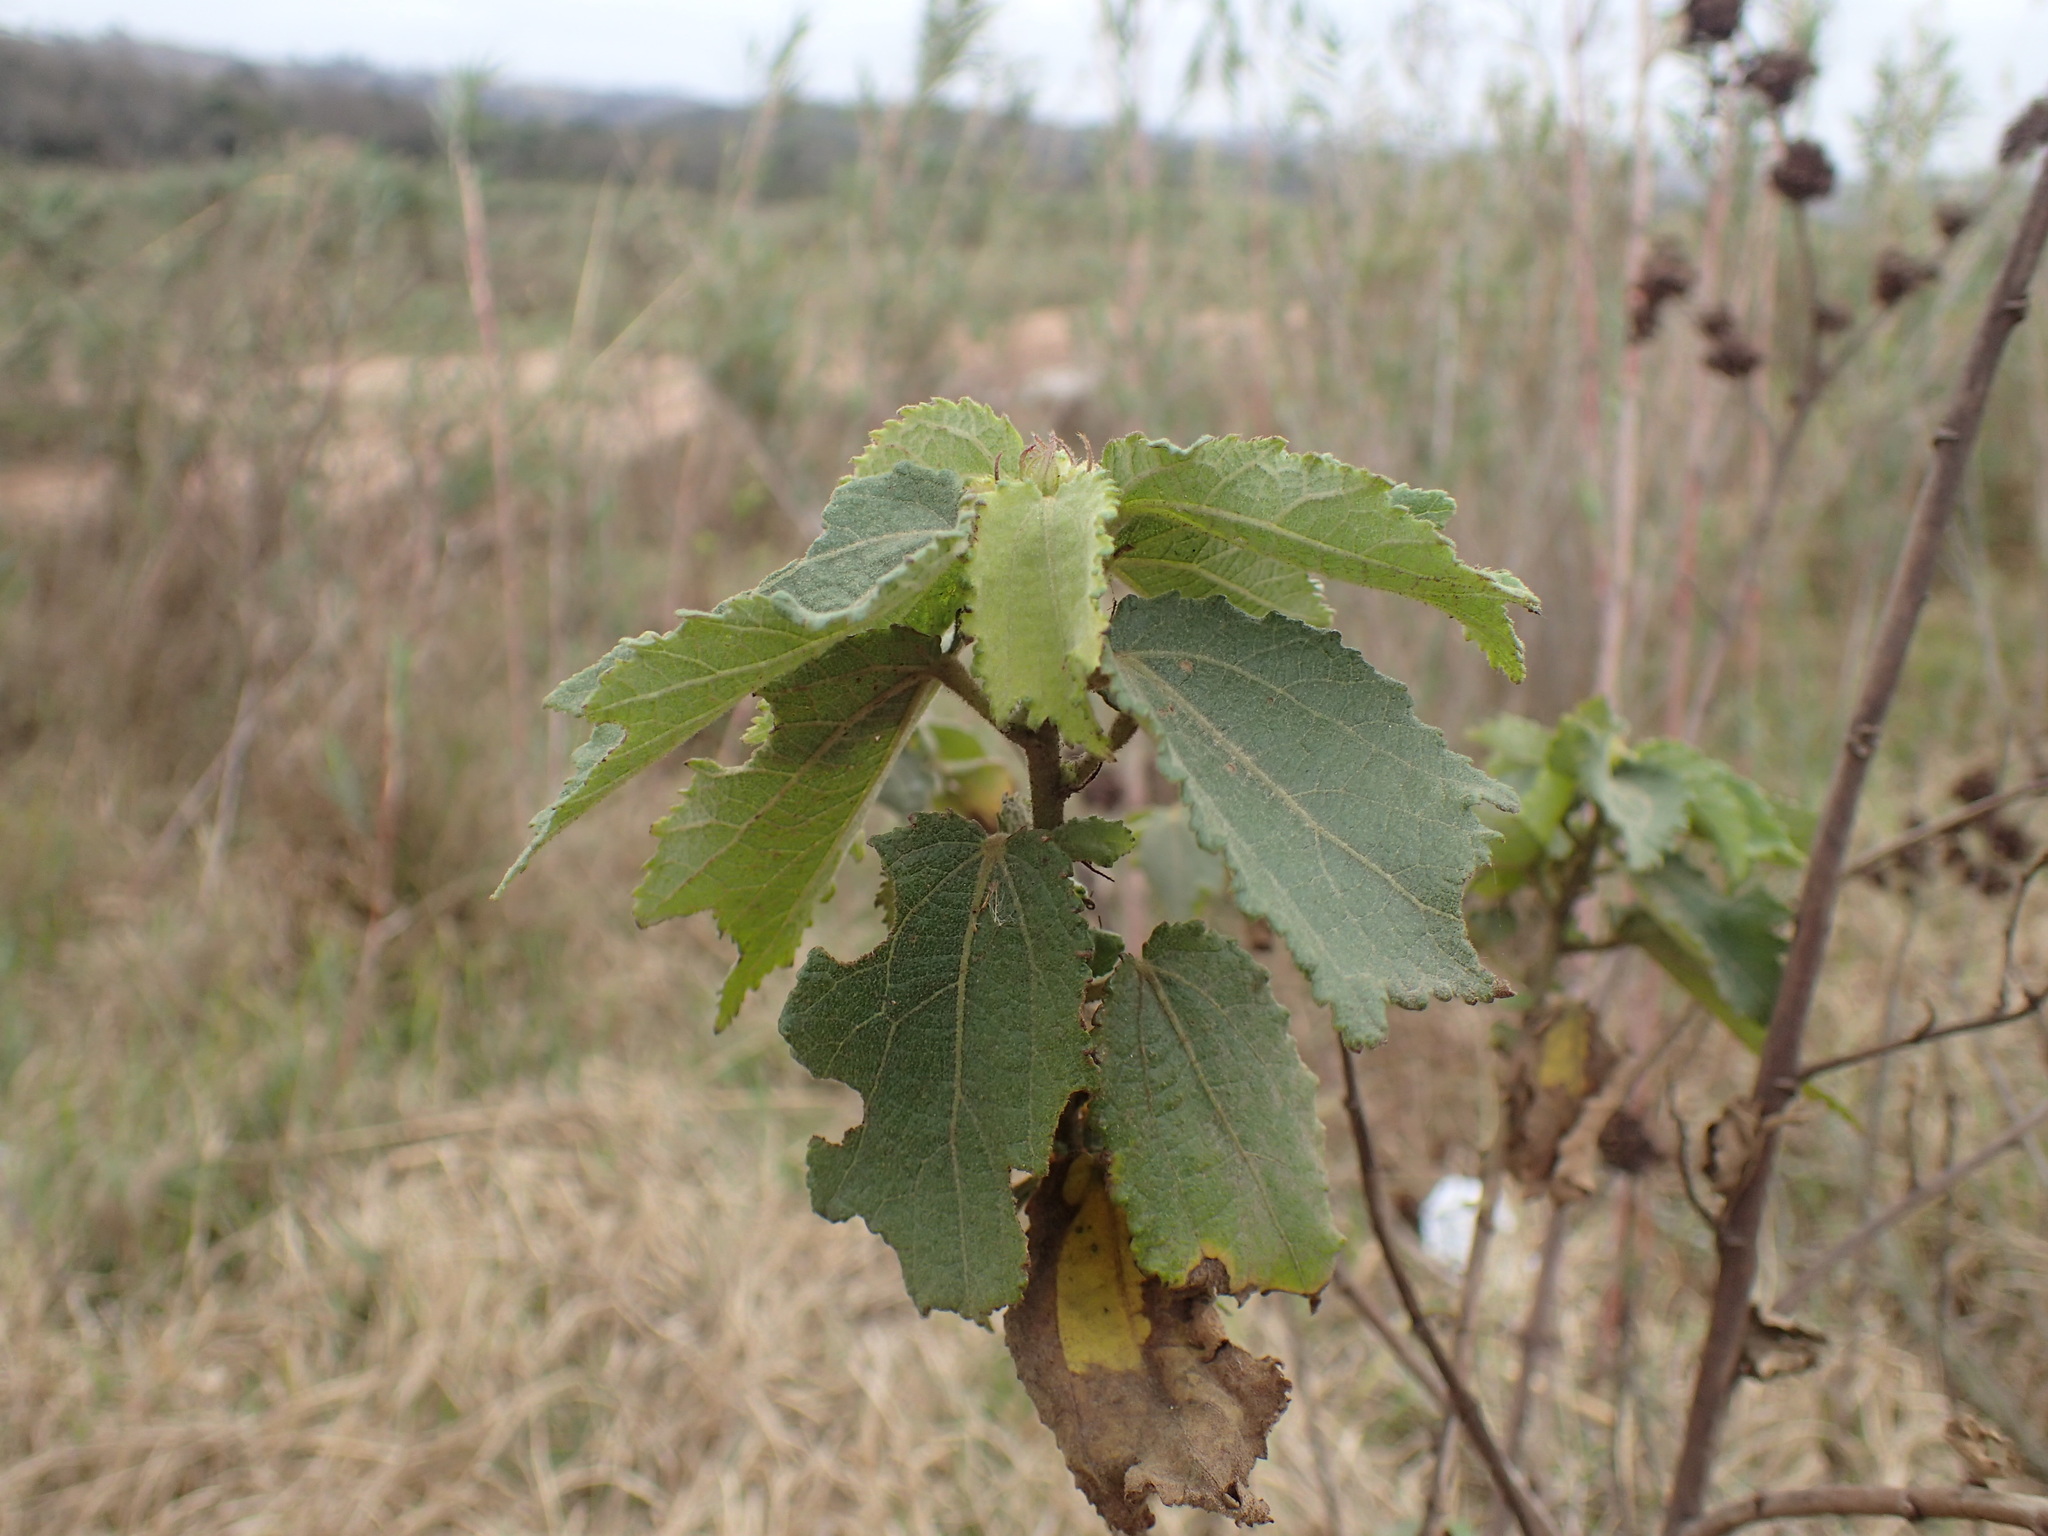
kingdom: Plantae
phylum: Tracheophyta
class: Magnoliopsida
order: Malvales
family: Malvaceae
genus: Triumfetta
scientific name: Triumfetta pilosa
